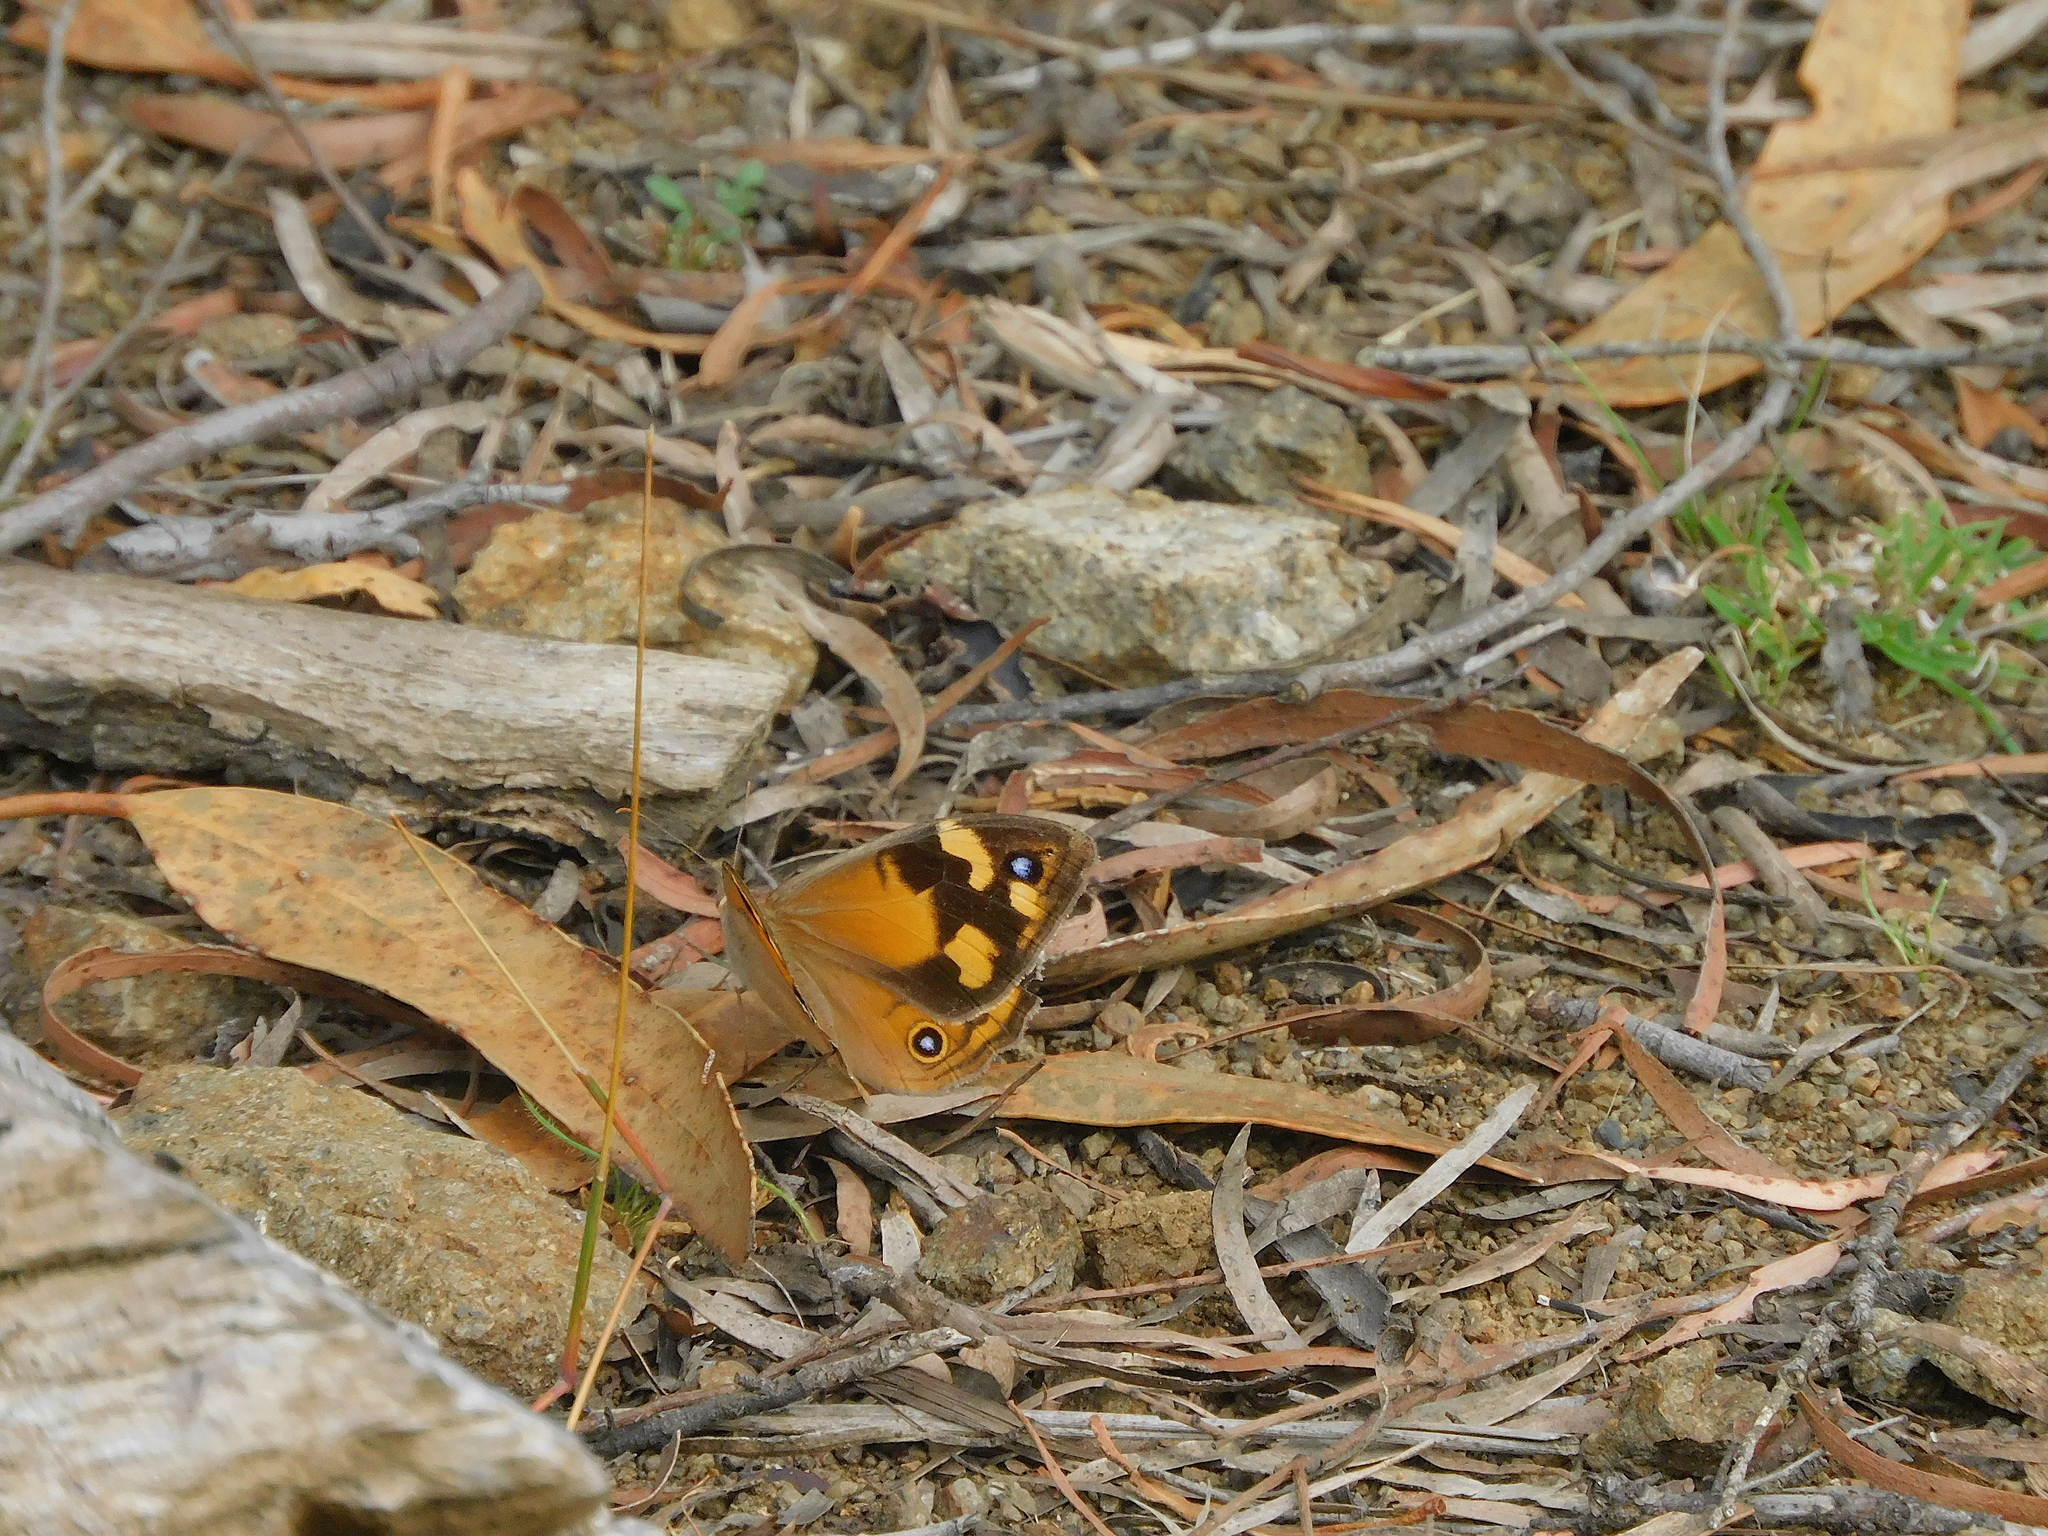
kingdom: Animalia
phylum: Arthropoda
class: Insecta
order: Lepidoptera
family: Nymphalidae
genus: Heteronympha
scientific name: Heteronympha merope
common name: Common brown
